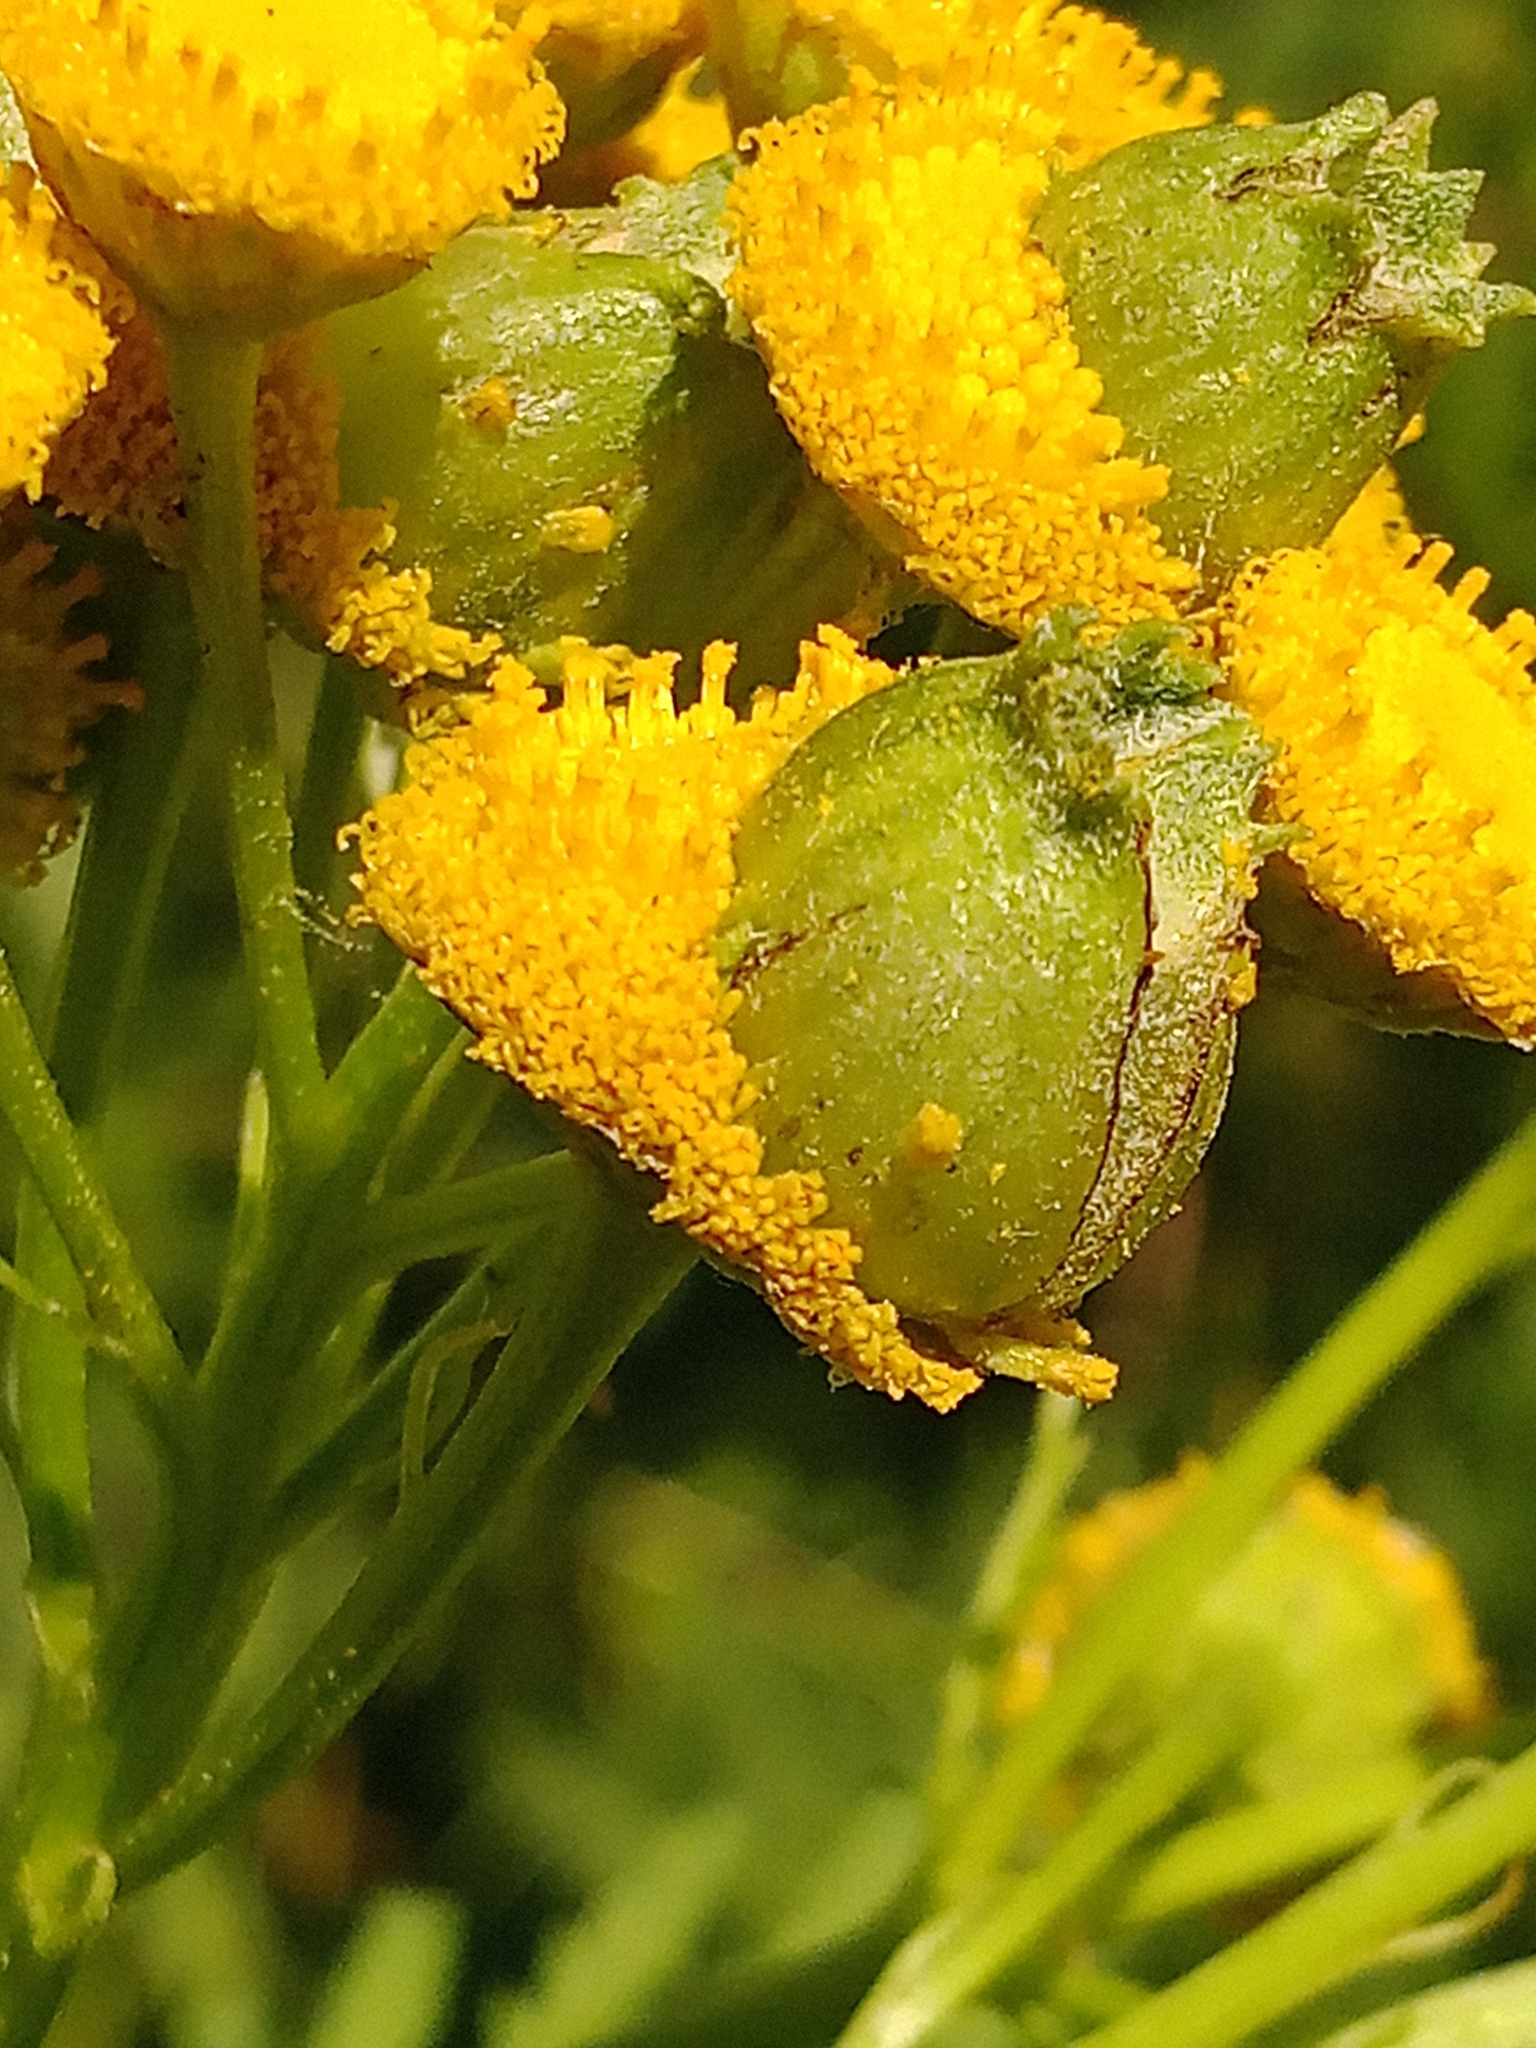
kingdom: Animalia
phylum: Arthropoda
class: Insecta
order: Diptera
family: Cecidomyiidae
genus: Rhopalomyia
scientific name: Rhopalomyia tanaceticolus
